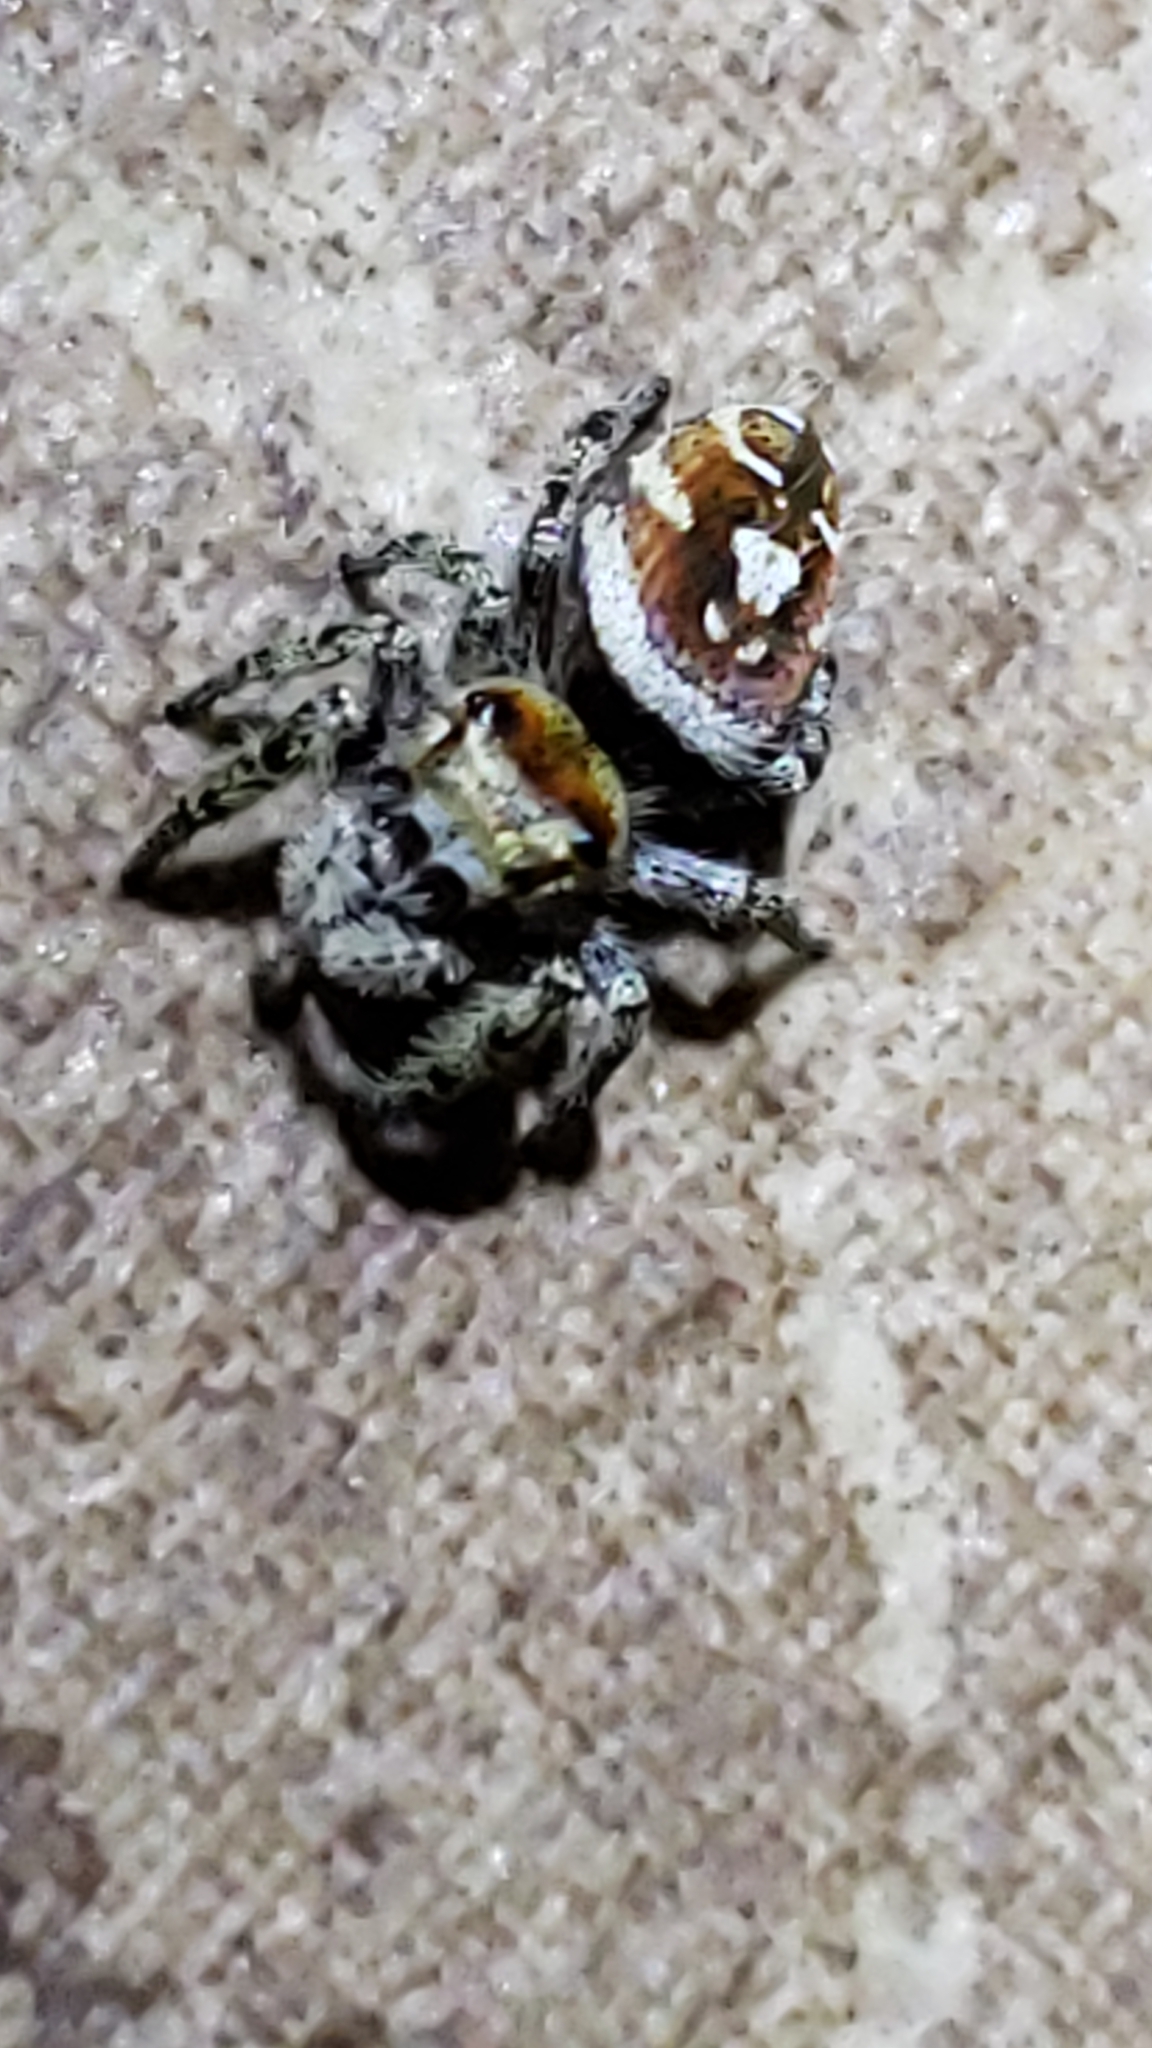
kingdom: Animalia
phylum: Arthropoda
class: Arachnida
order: Araneae
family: Salticidae
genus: Phidippus
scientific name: Phidippus arizonensis
